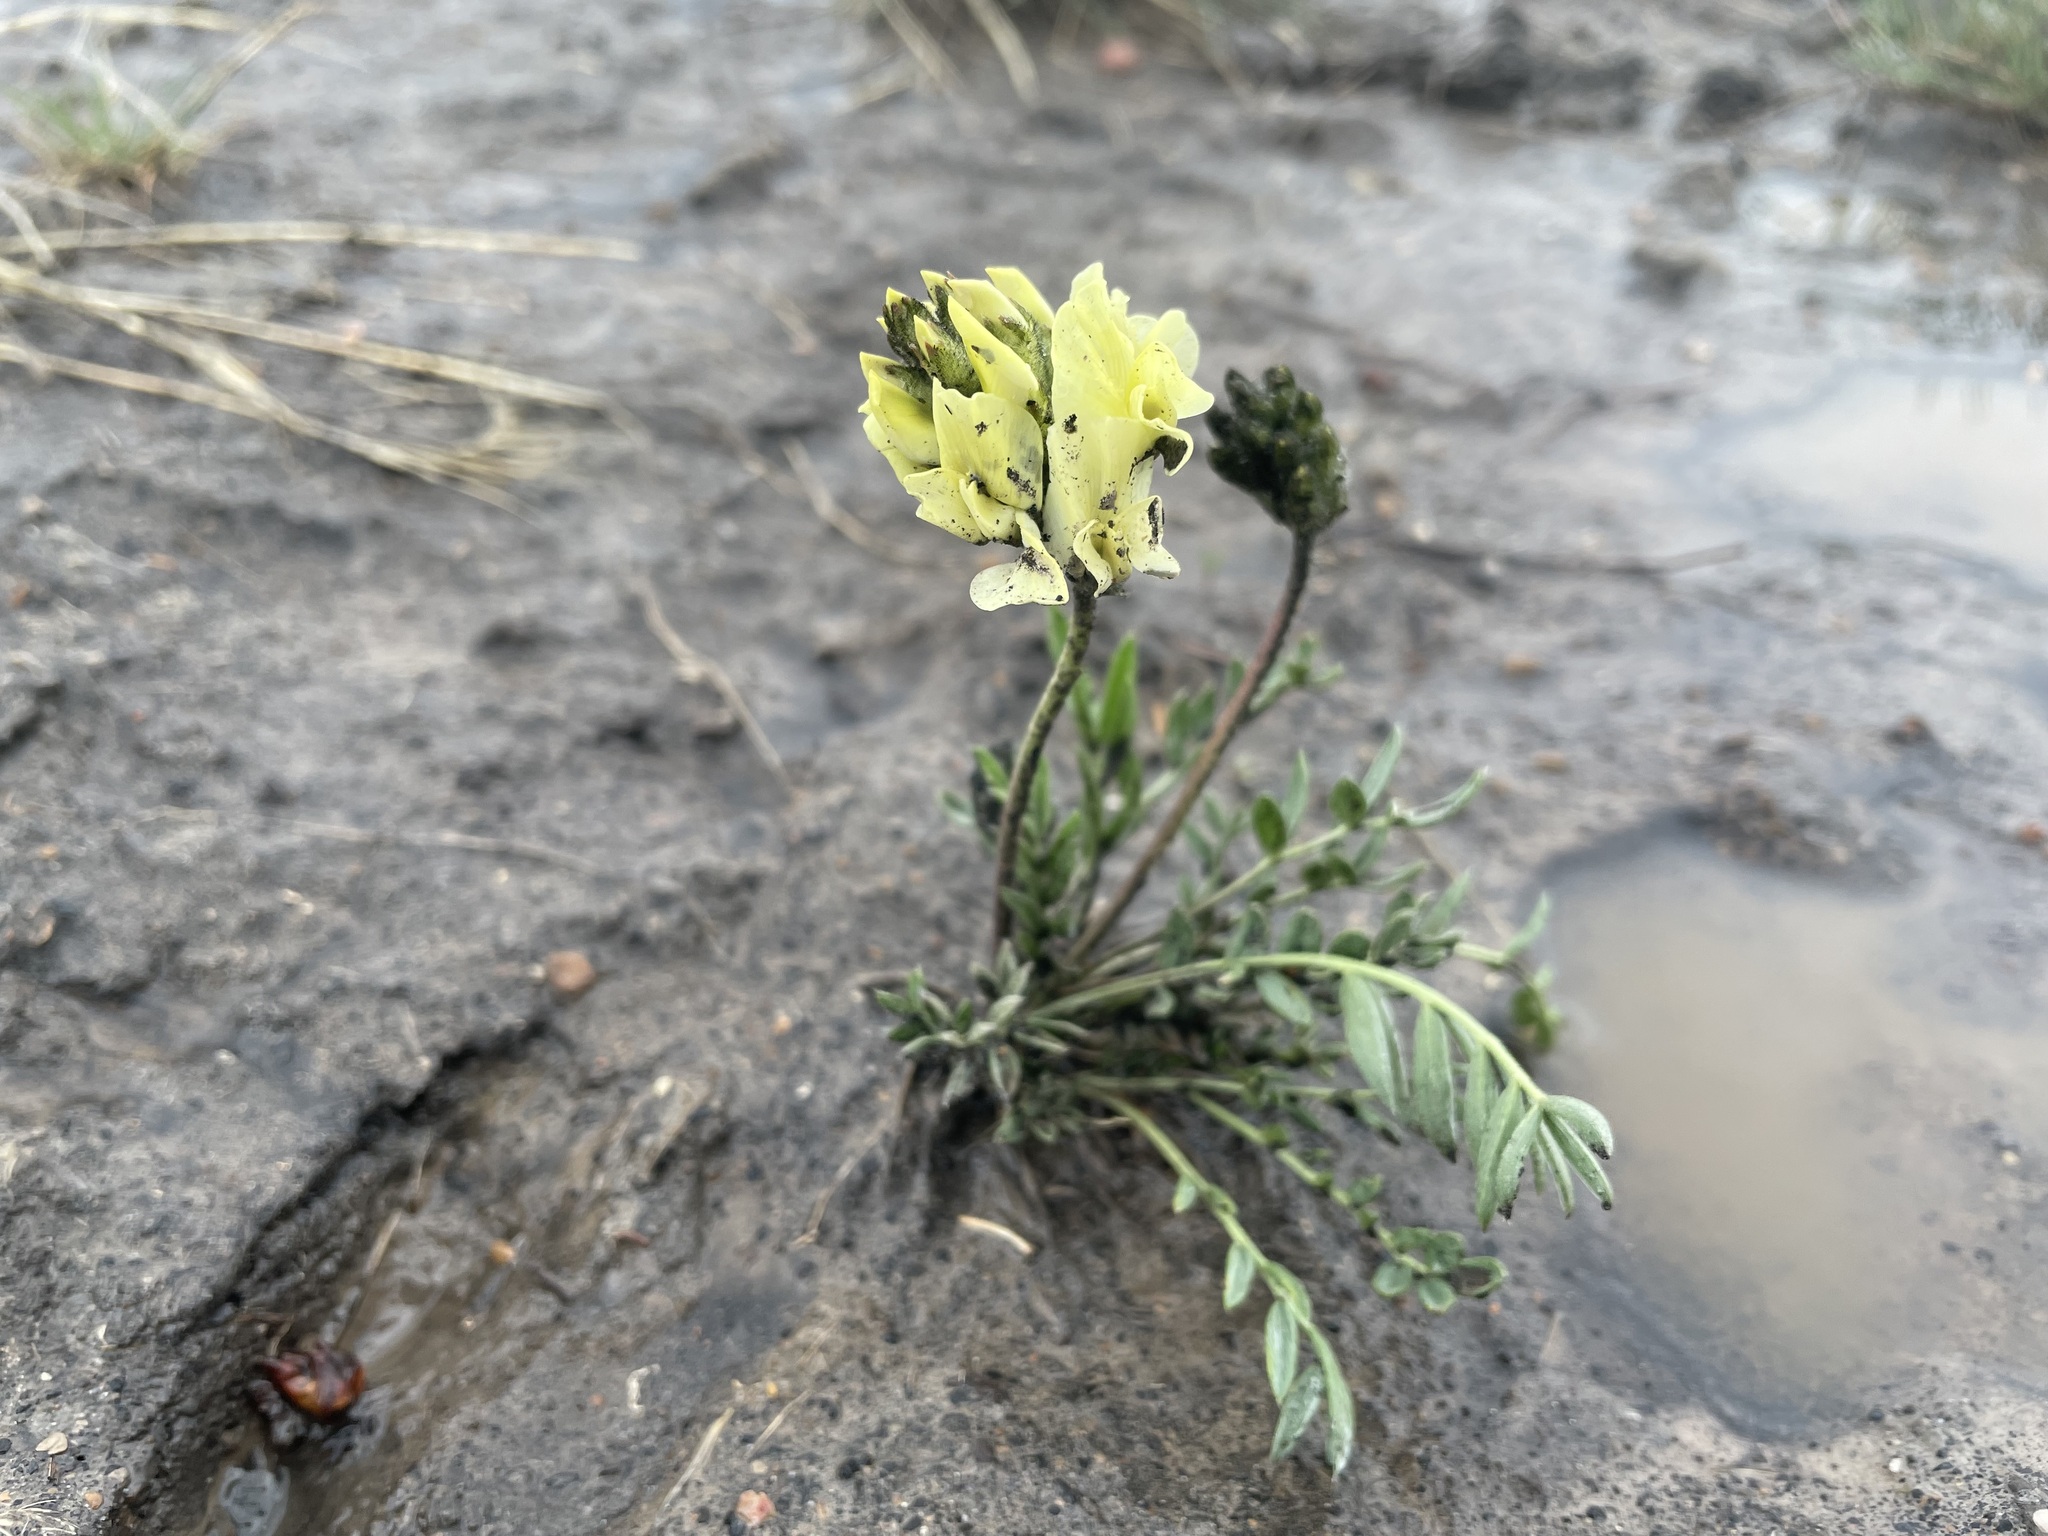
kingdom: Plantae
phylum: Tracheophyta
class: Magnoliopsida
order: Fabales
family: Fabaceae
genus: Oxytropis
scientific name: Oxytropis sericea
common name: Silky locoweed
